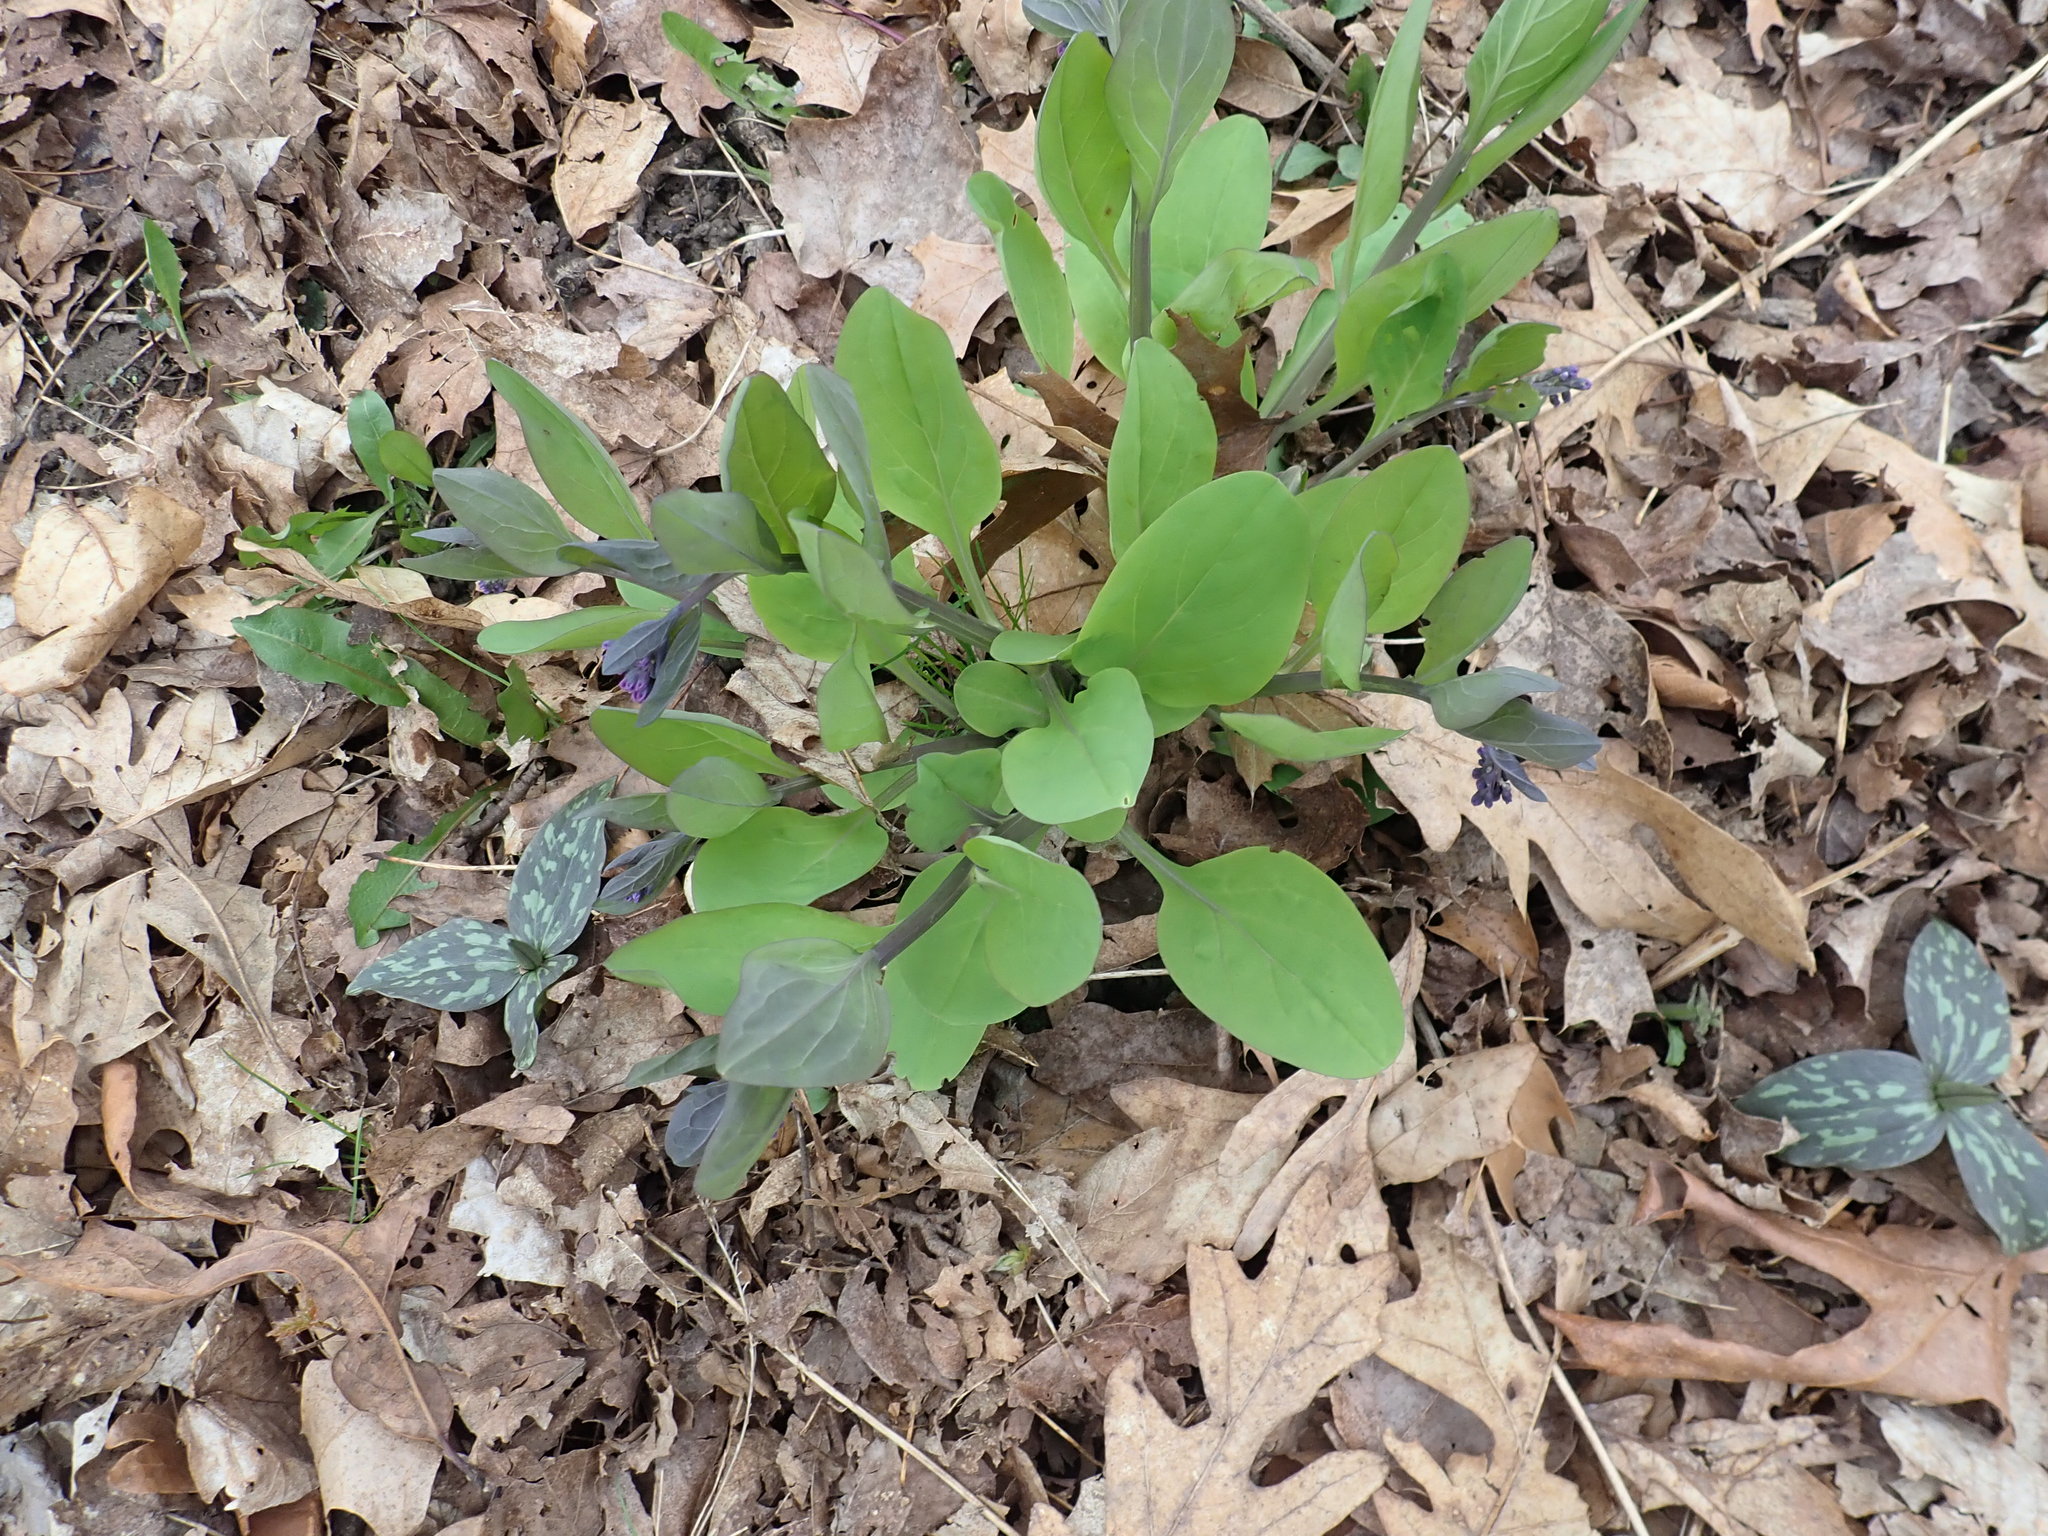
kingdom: Plantae
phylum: Tracheophyta
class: Magnoliopsida
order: Boraginales
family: Boraginaceae
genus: Mertensia
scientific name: Mertensia virginica
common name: Virginia bluebells
